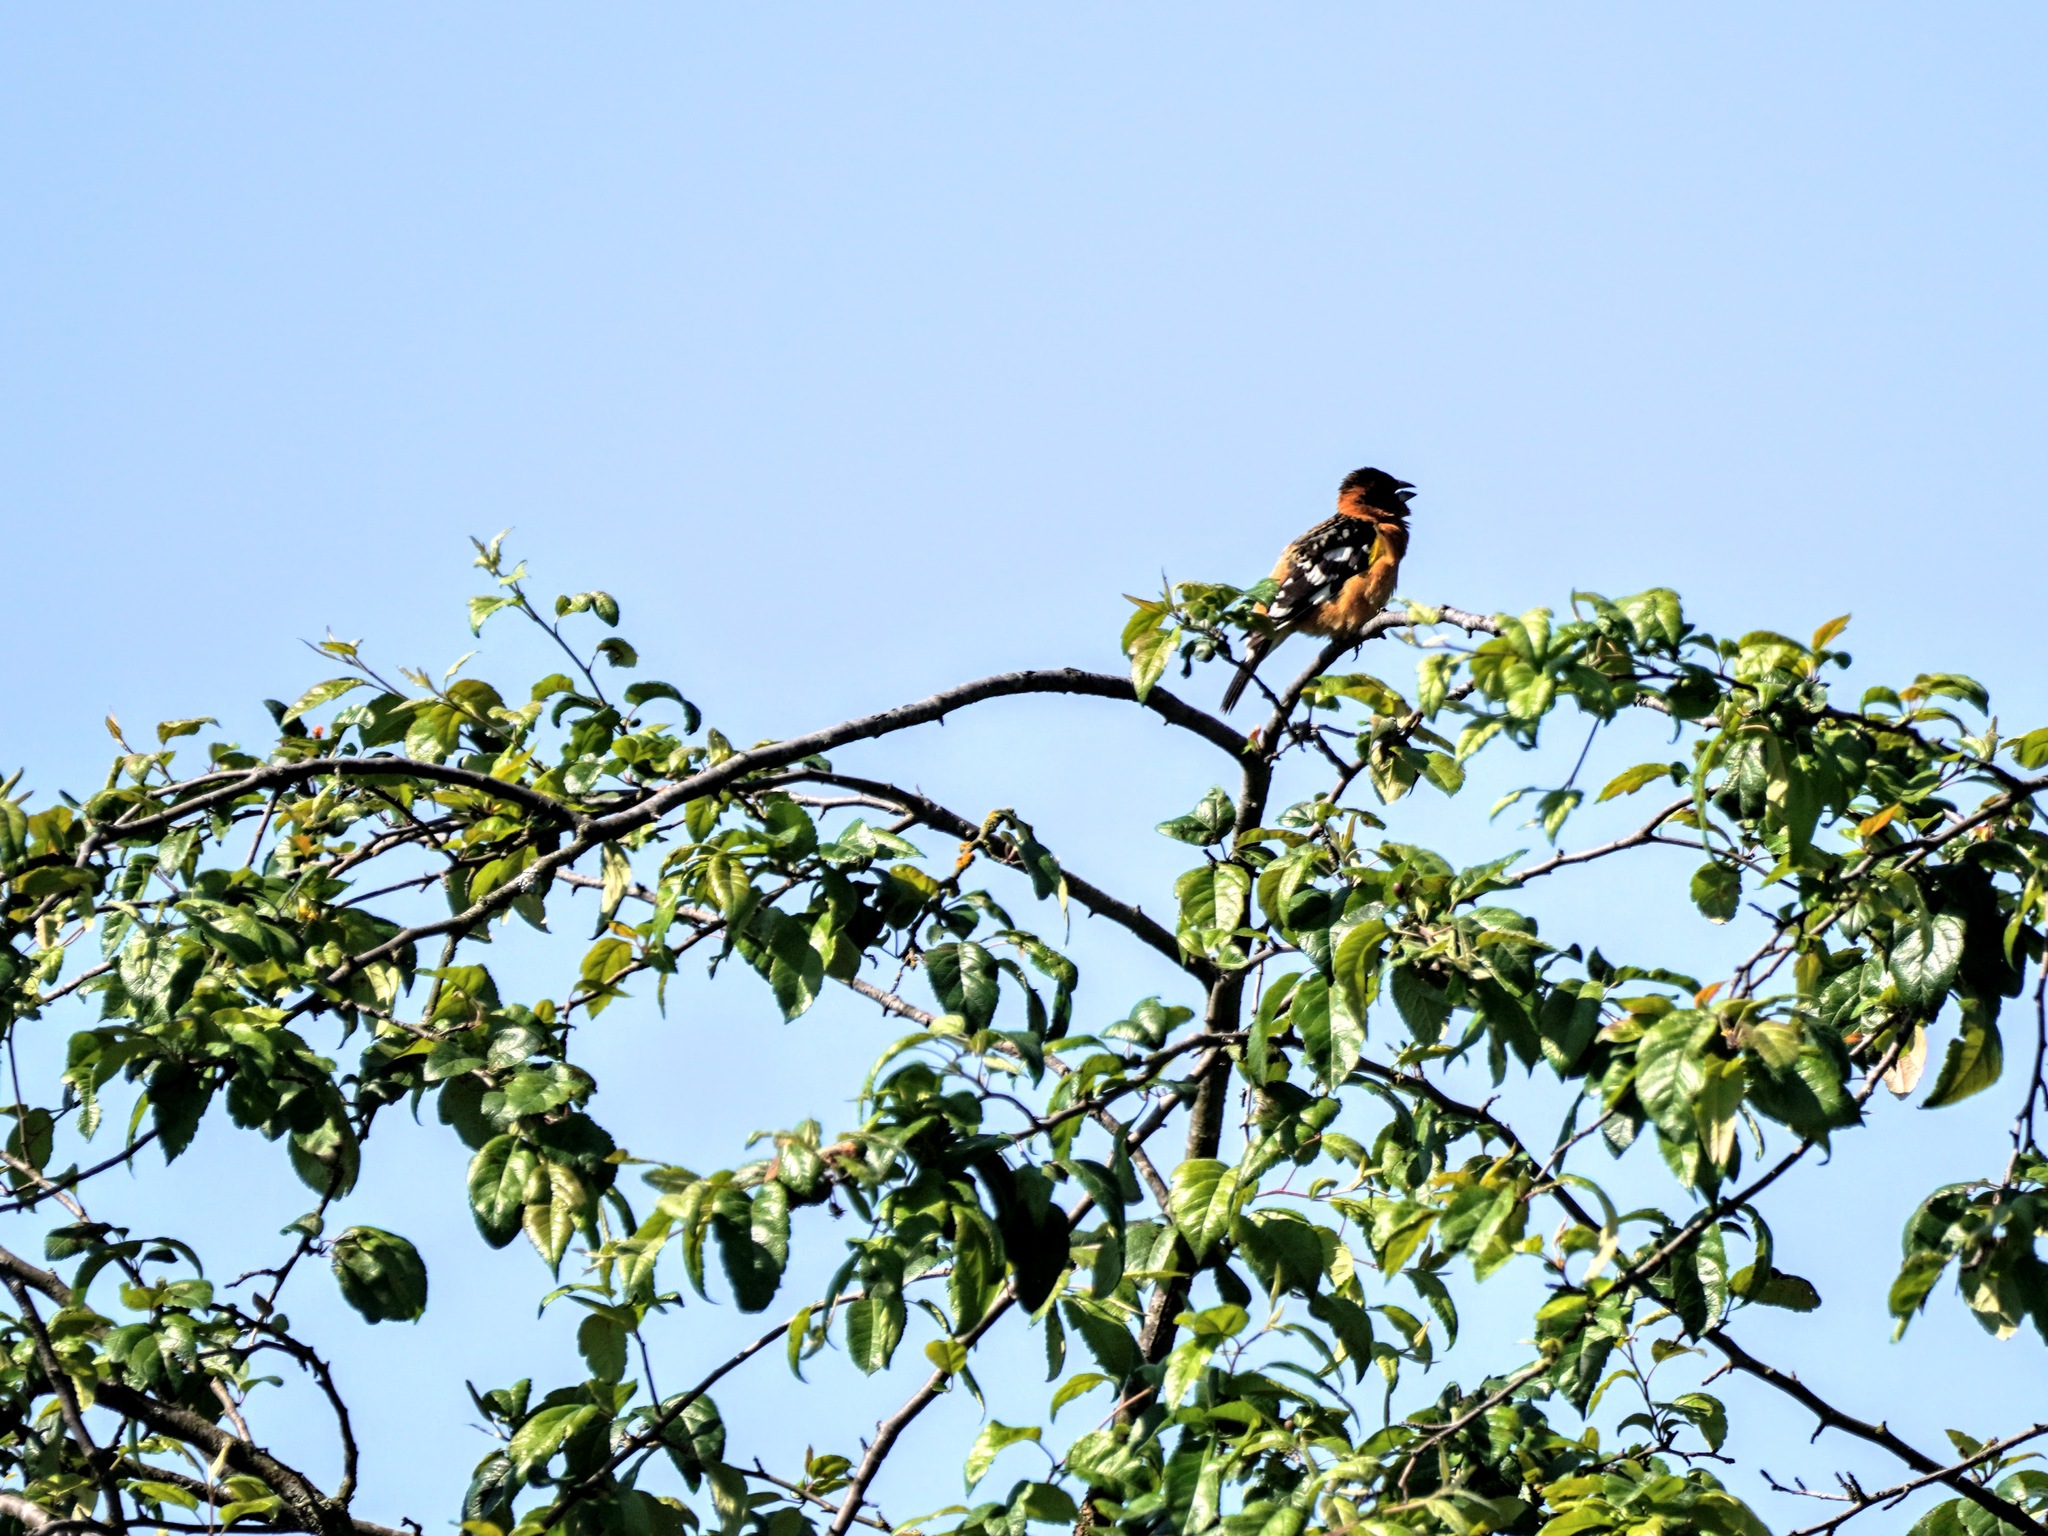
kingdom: Animalia
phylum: Chordata
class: Aves
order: Passeriformes
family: Cardinalidae
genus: Pheucticus
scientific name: Pheucticus melanocephalus
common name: Black-headed grosbeak
